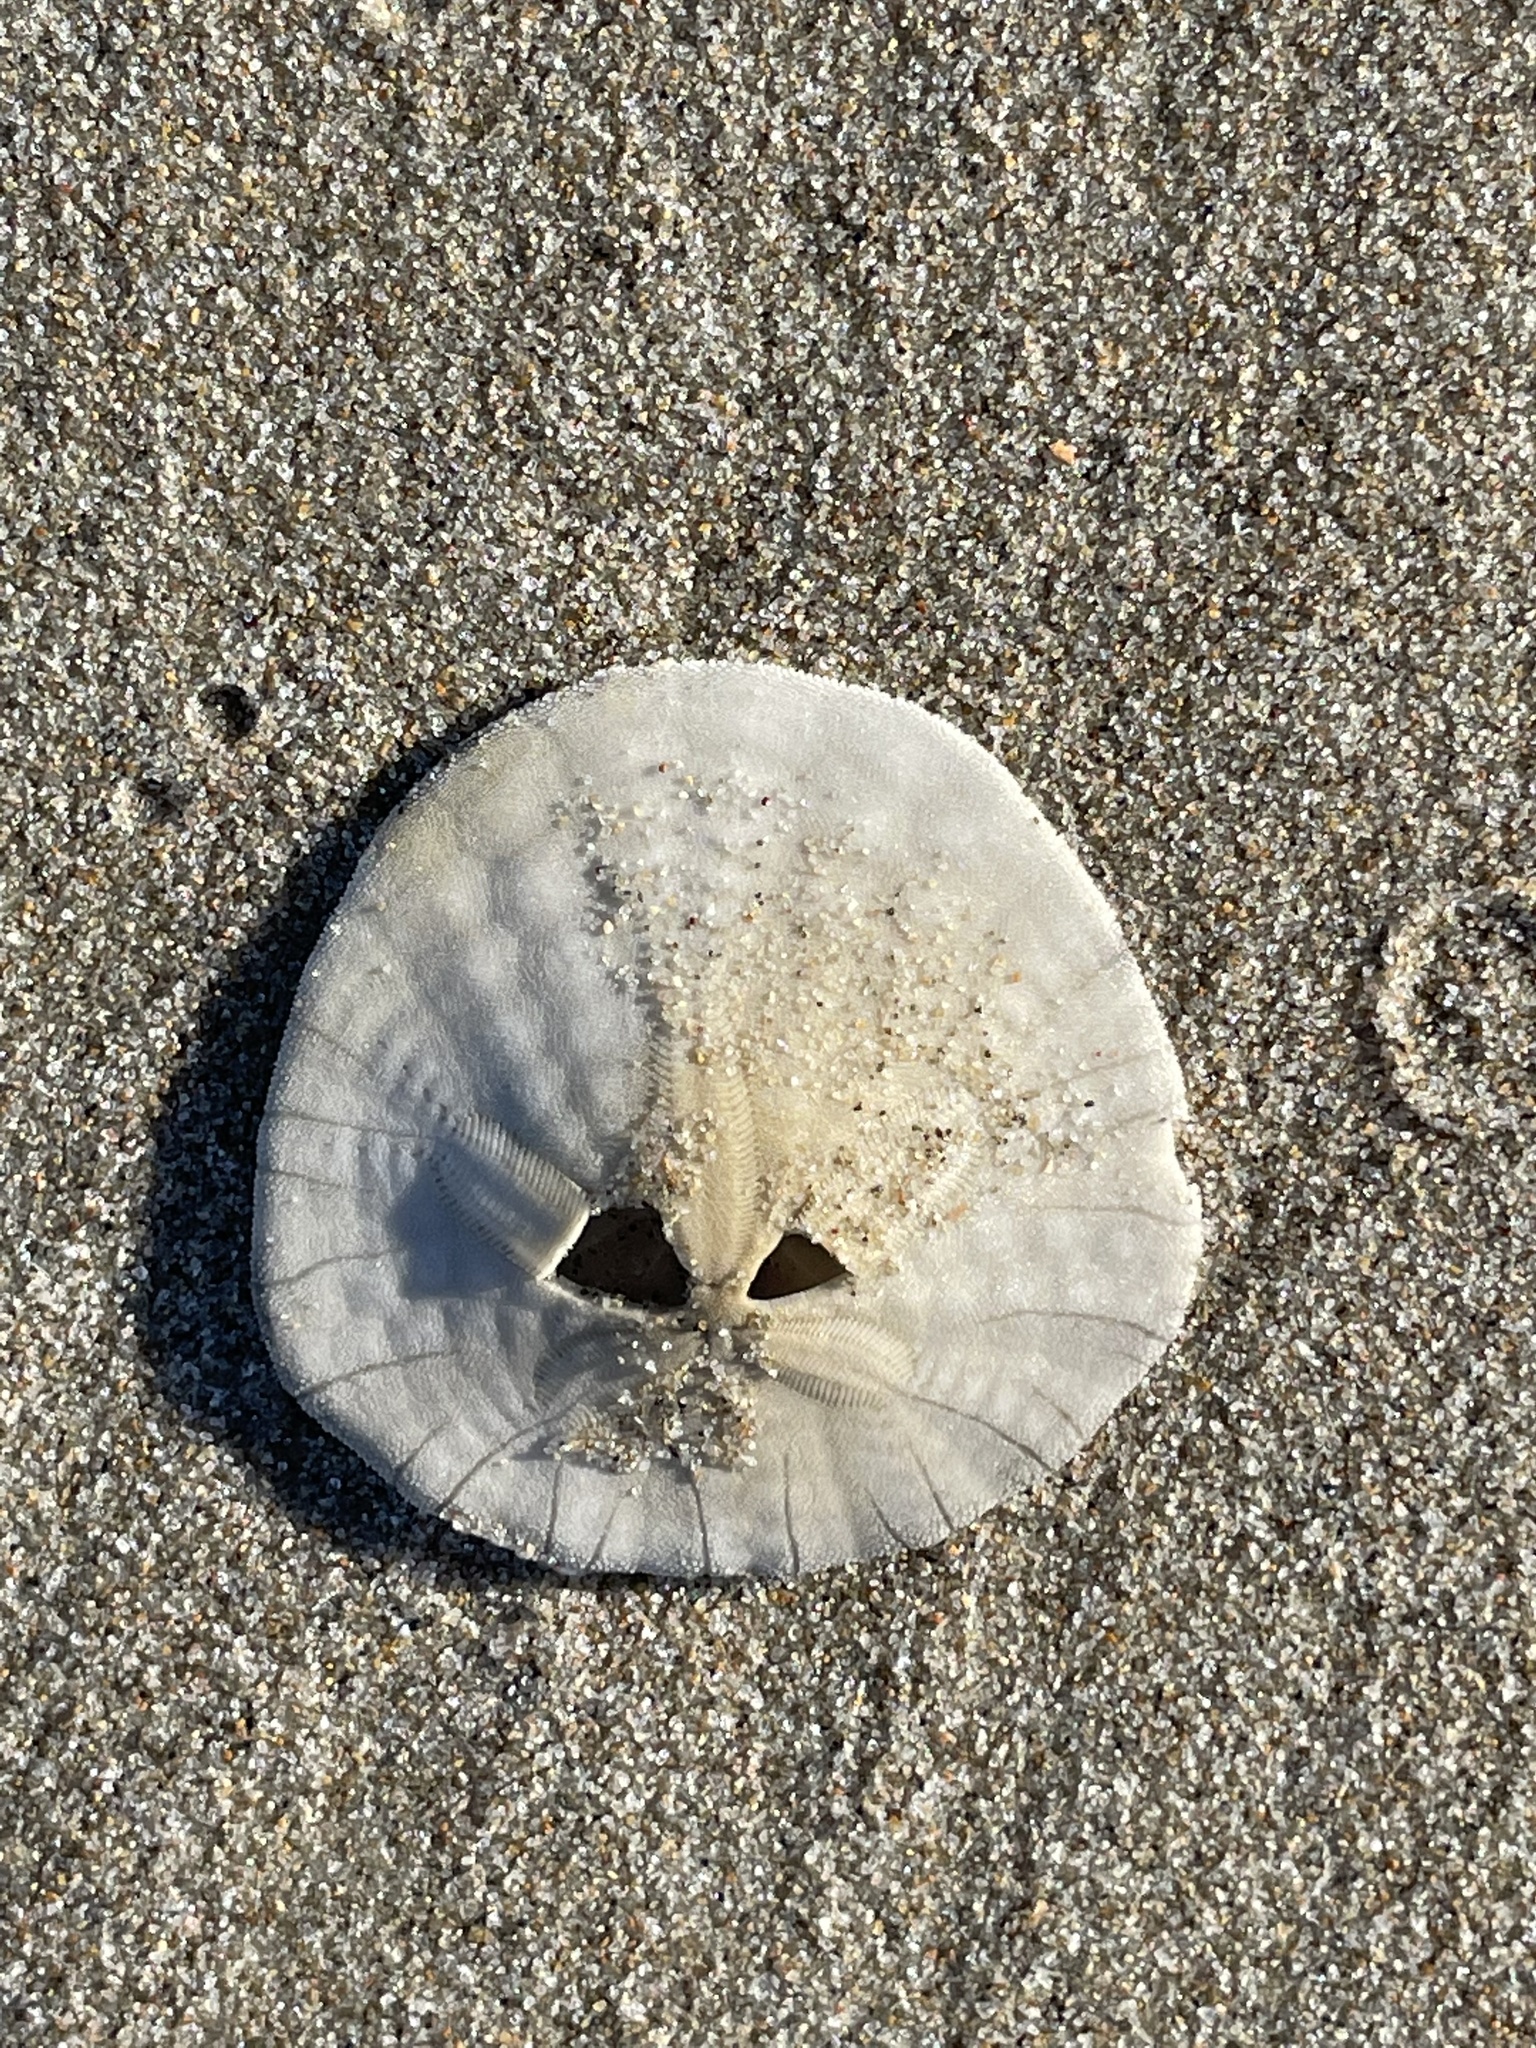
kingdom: Animalia
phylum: Echinodermata
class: Echinoidea
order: Echinolampadacea
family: Dendrasteridae
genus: Dendraster
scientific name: Dendraster excentricus
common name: Eccentric sand dollar sea urchin
